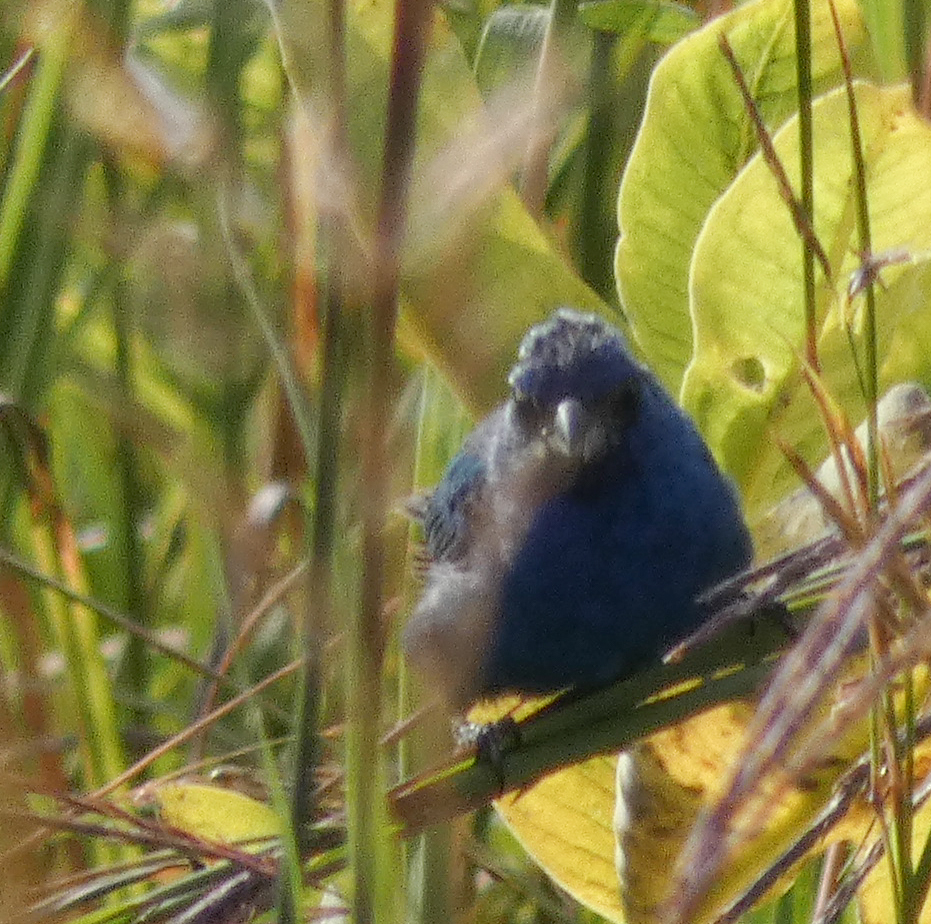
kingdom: Animalia
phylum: Chordata
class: Aves
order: Passeriformes
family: Cardinalidae
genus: Passerina
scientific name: Passerina cyanea
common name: Indigo bunting
